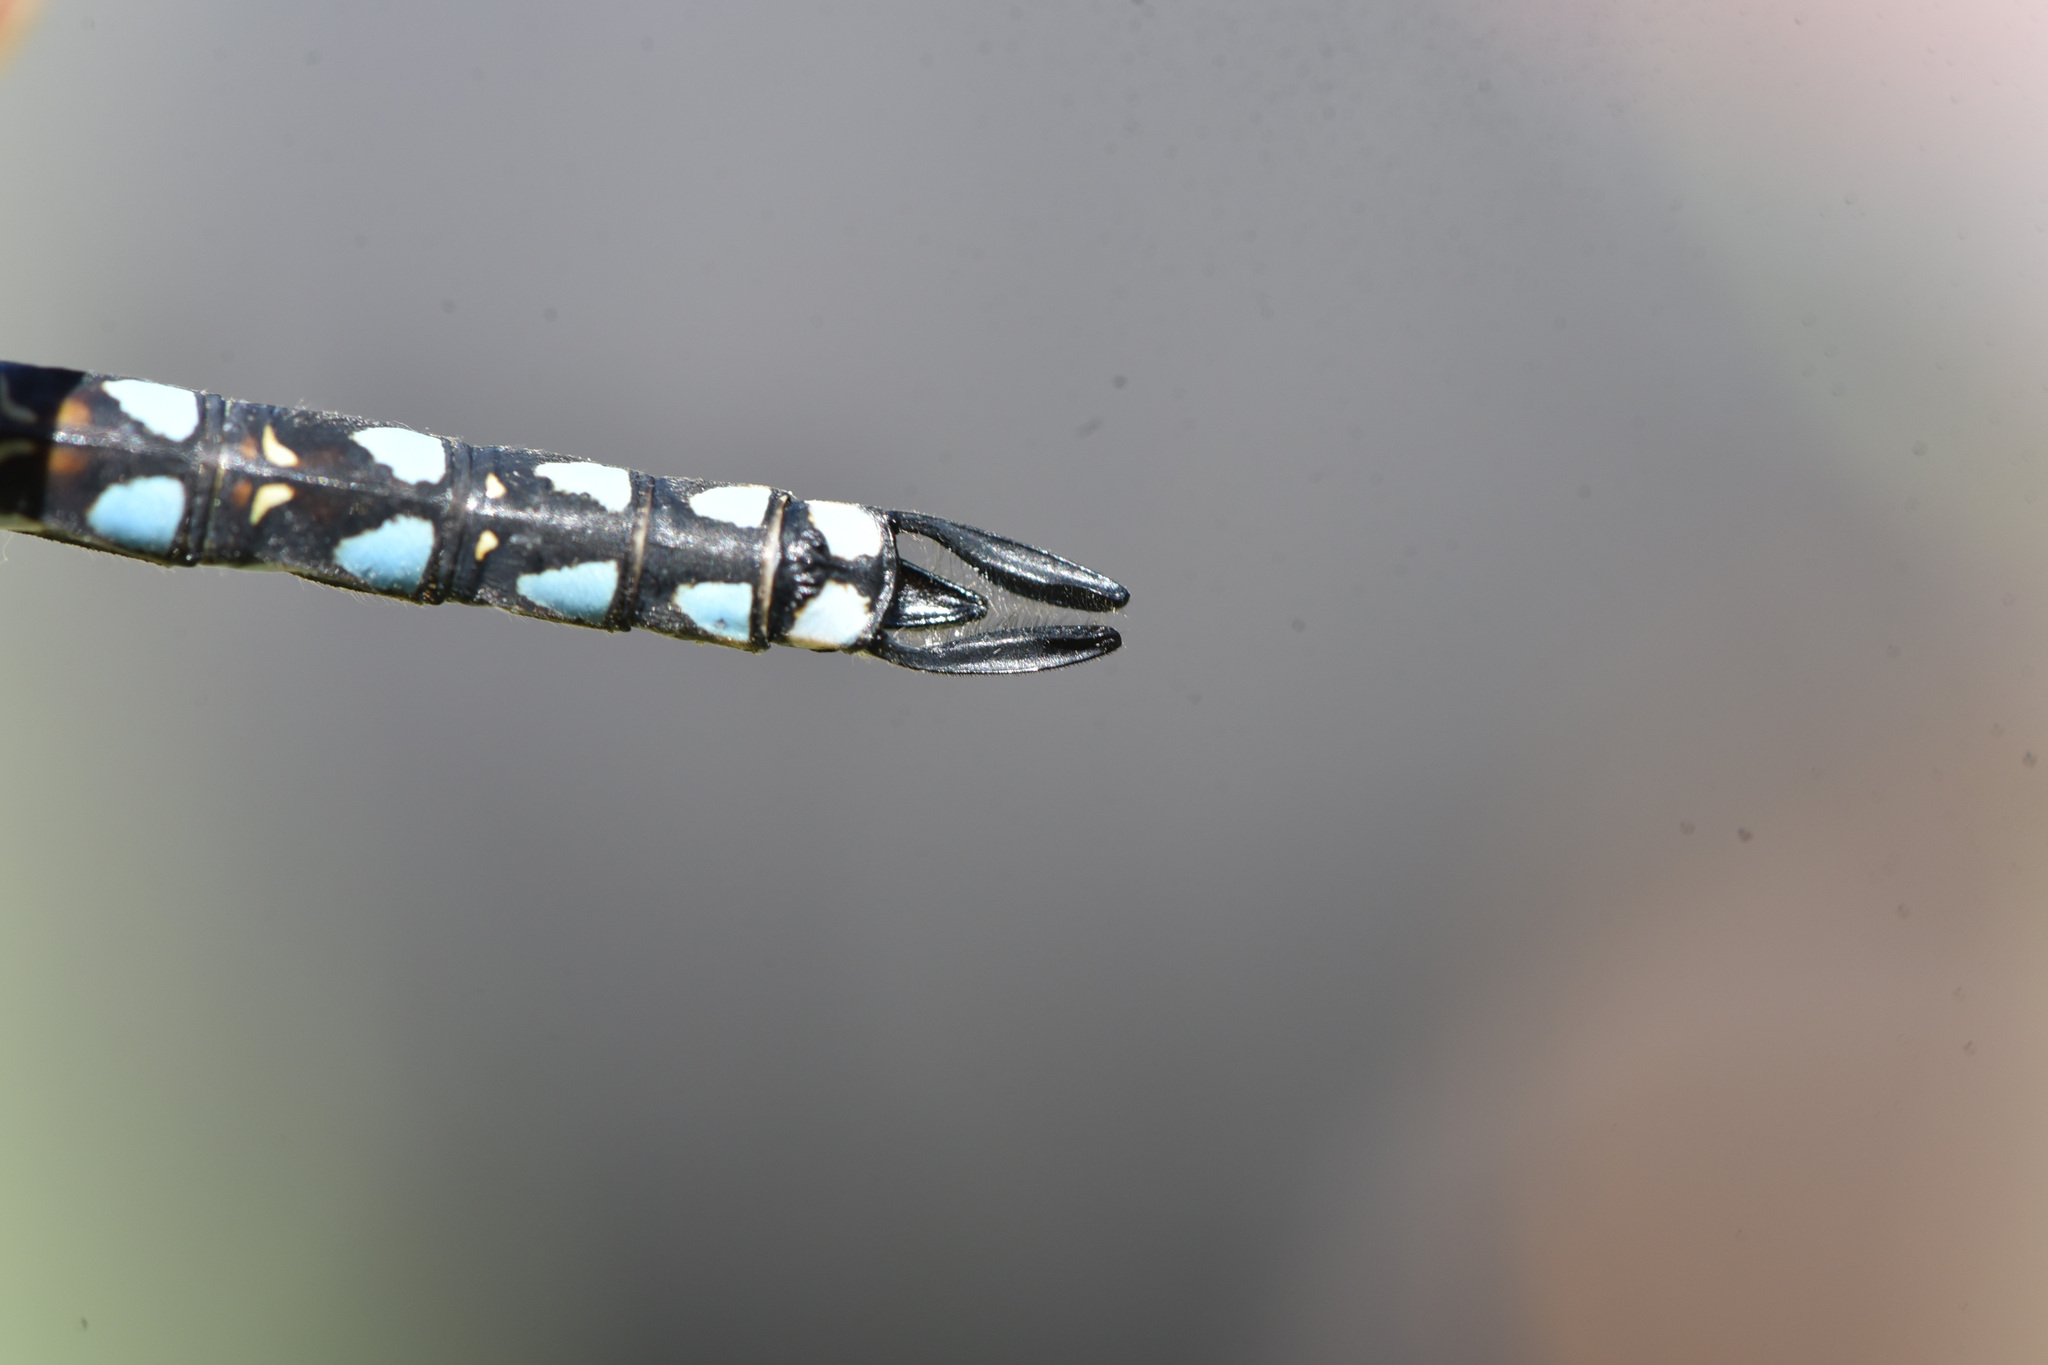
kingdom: Animalia
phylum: Arthropoda
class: Insecta
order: Odonata
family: Aeshnidae
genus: Rhionaeschna
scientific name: Rhionaeschna californica
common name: California darner
